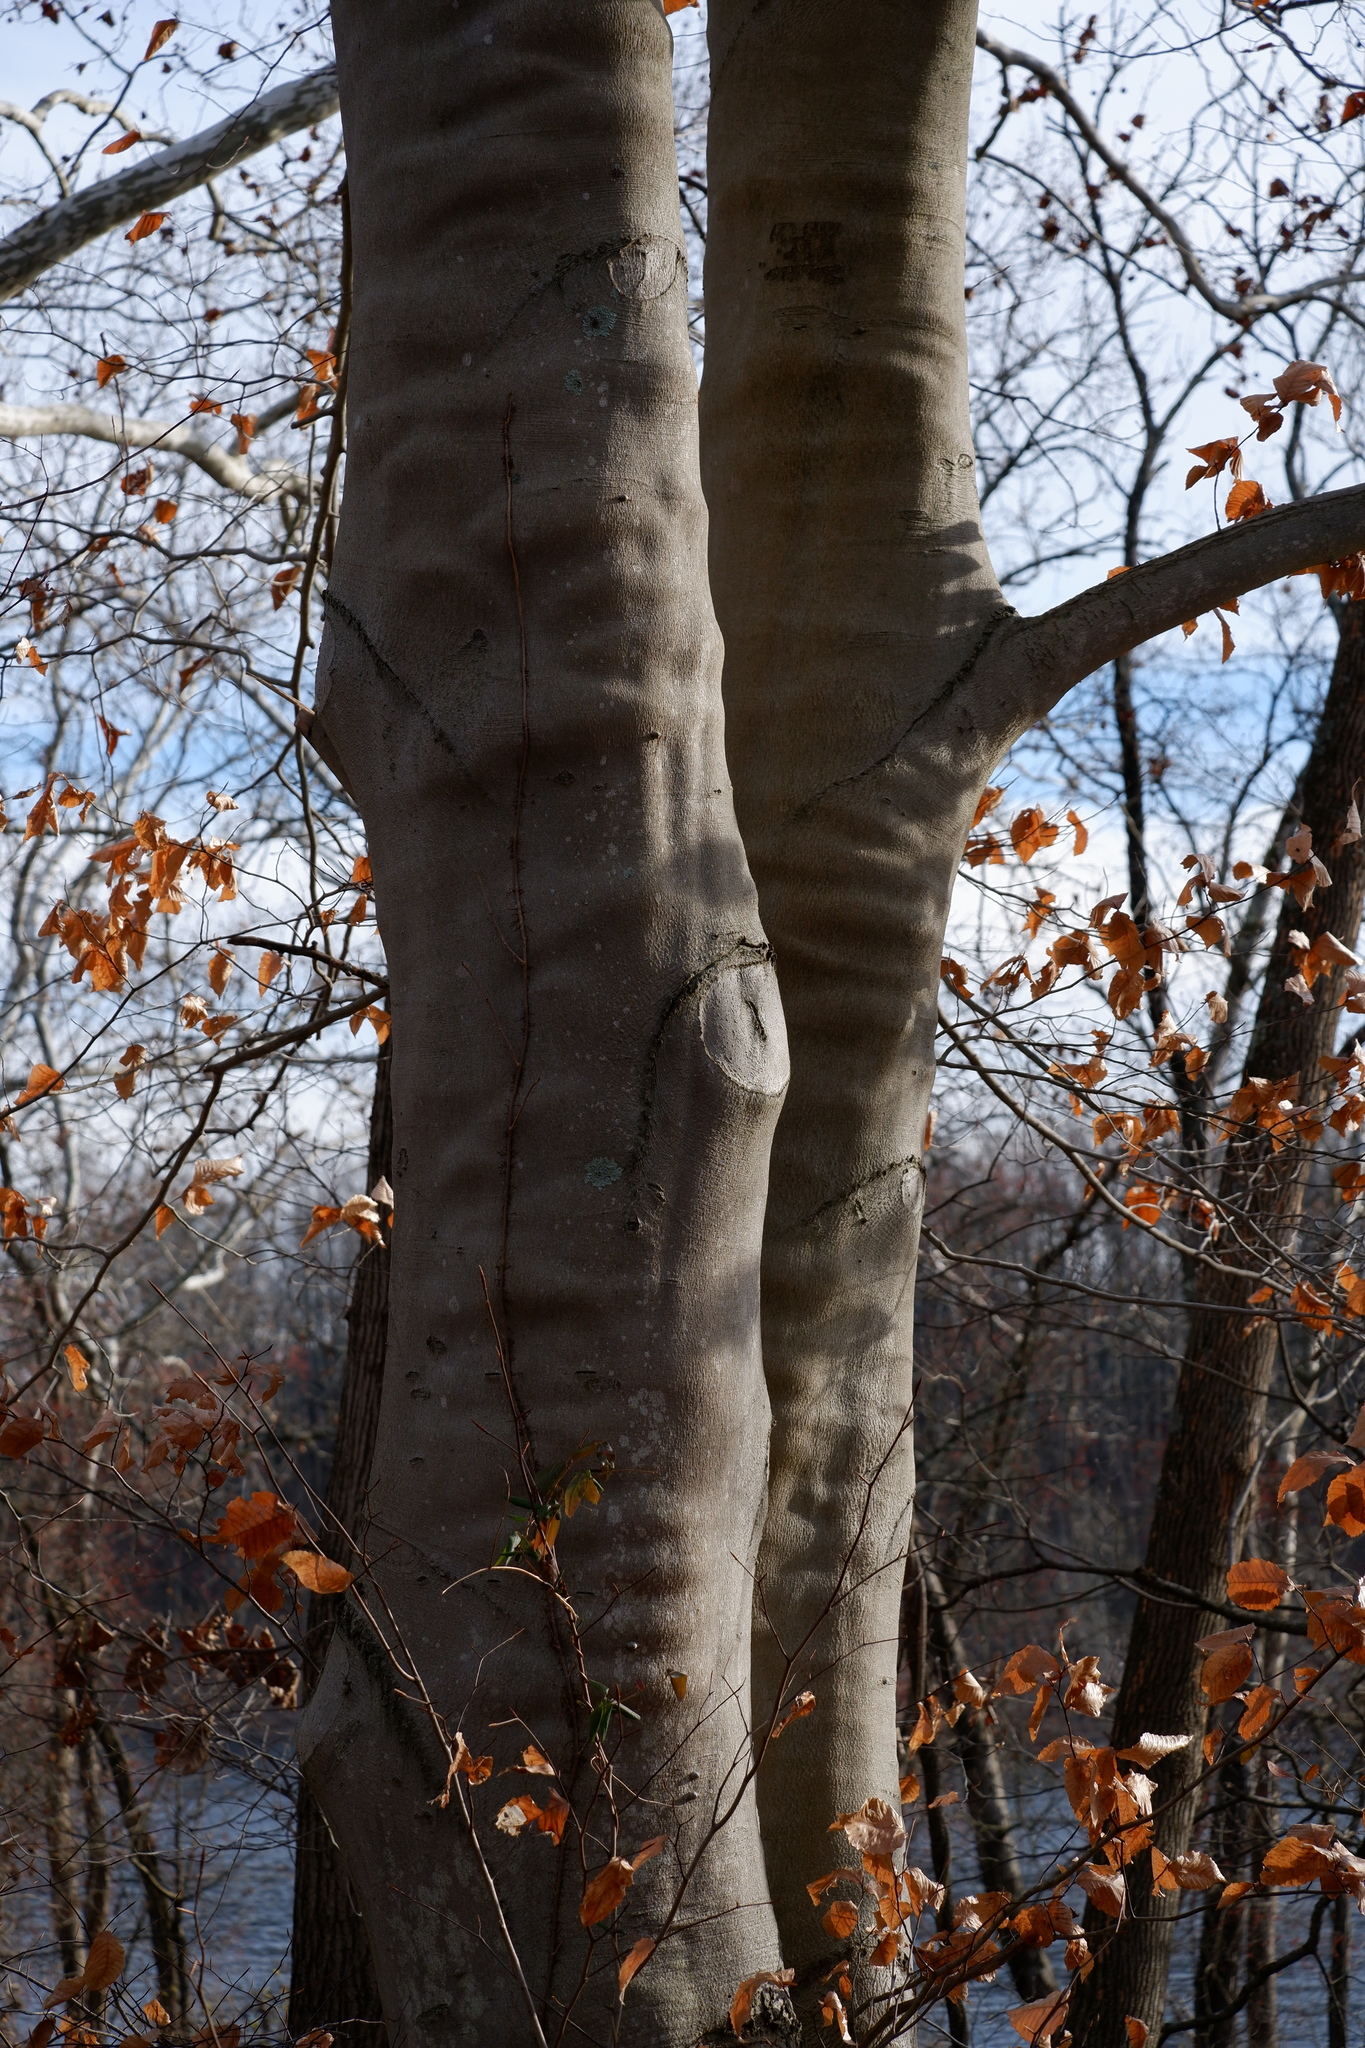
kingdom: Plantae
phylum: Tracheophyta
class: Magnoliopsida
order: Fagales
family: Fagaceae
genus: Fagus
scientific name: Fagus grandifolia
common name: American beech
